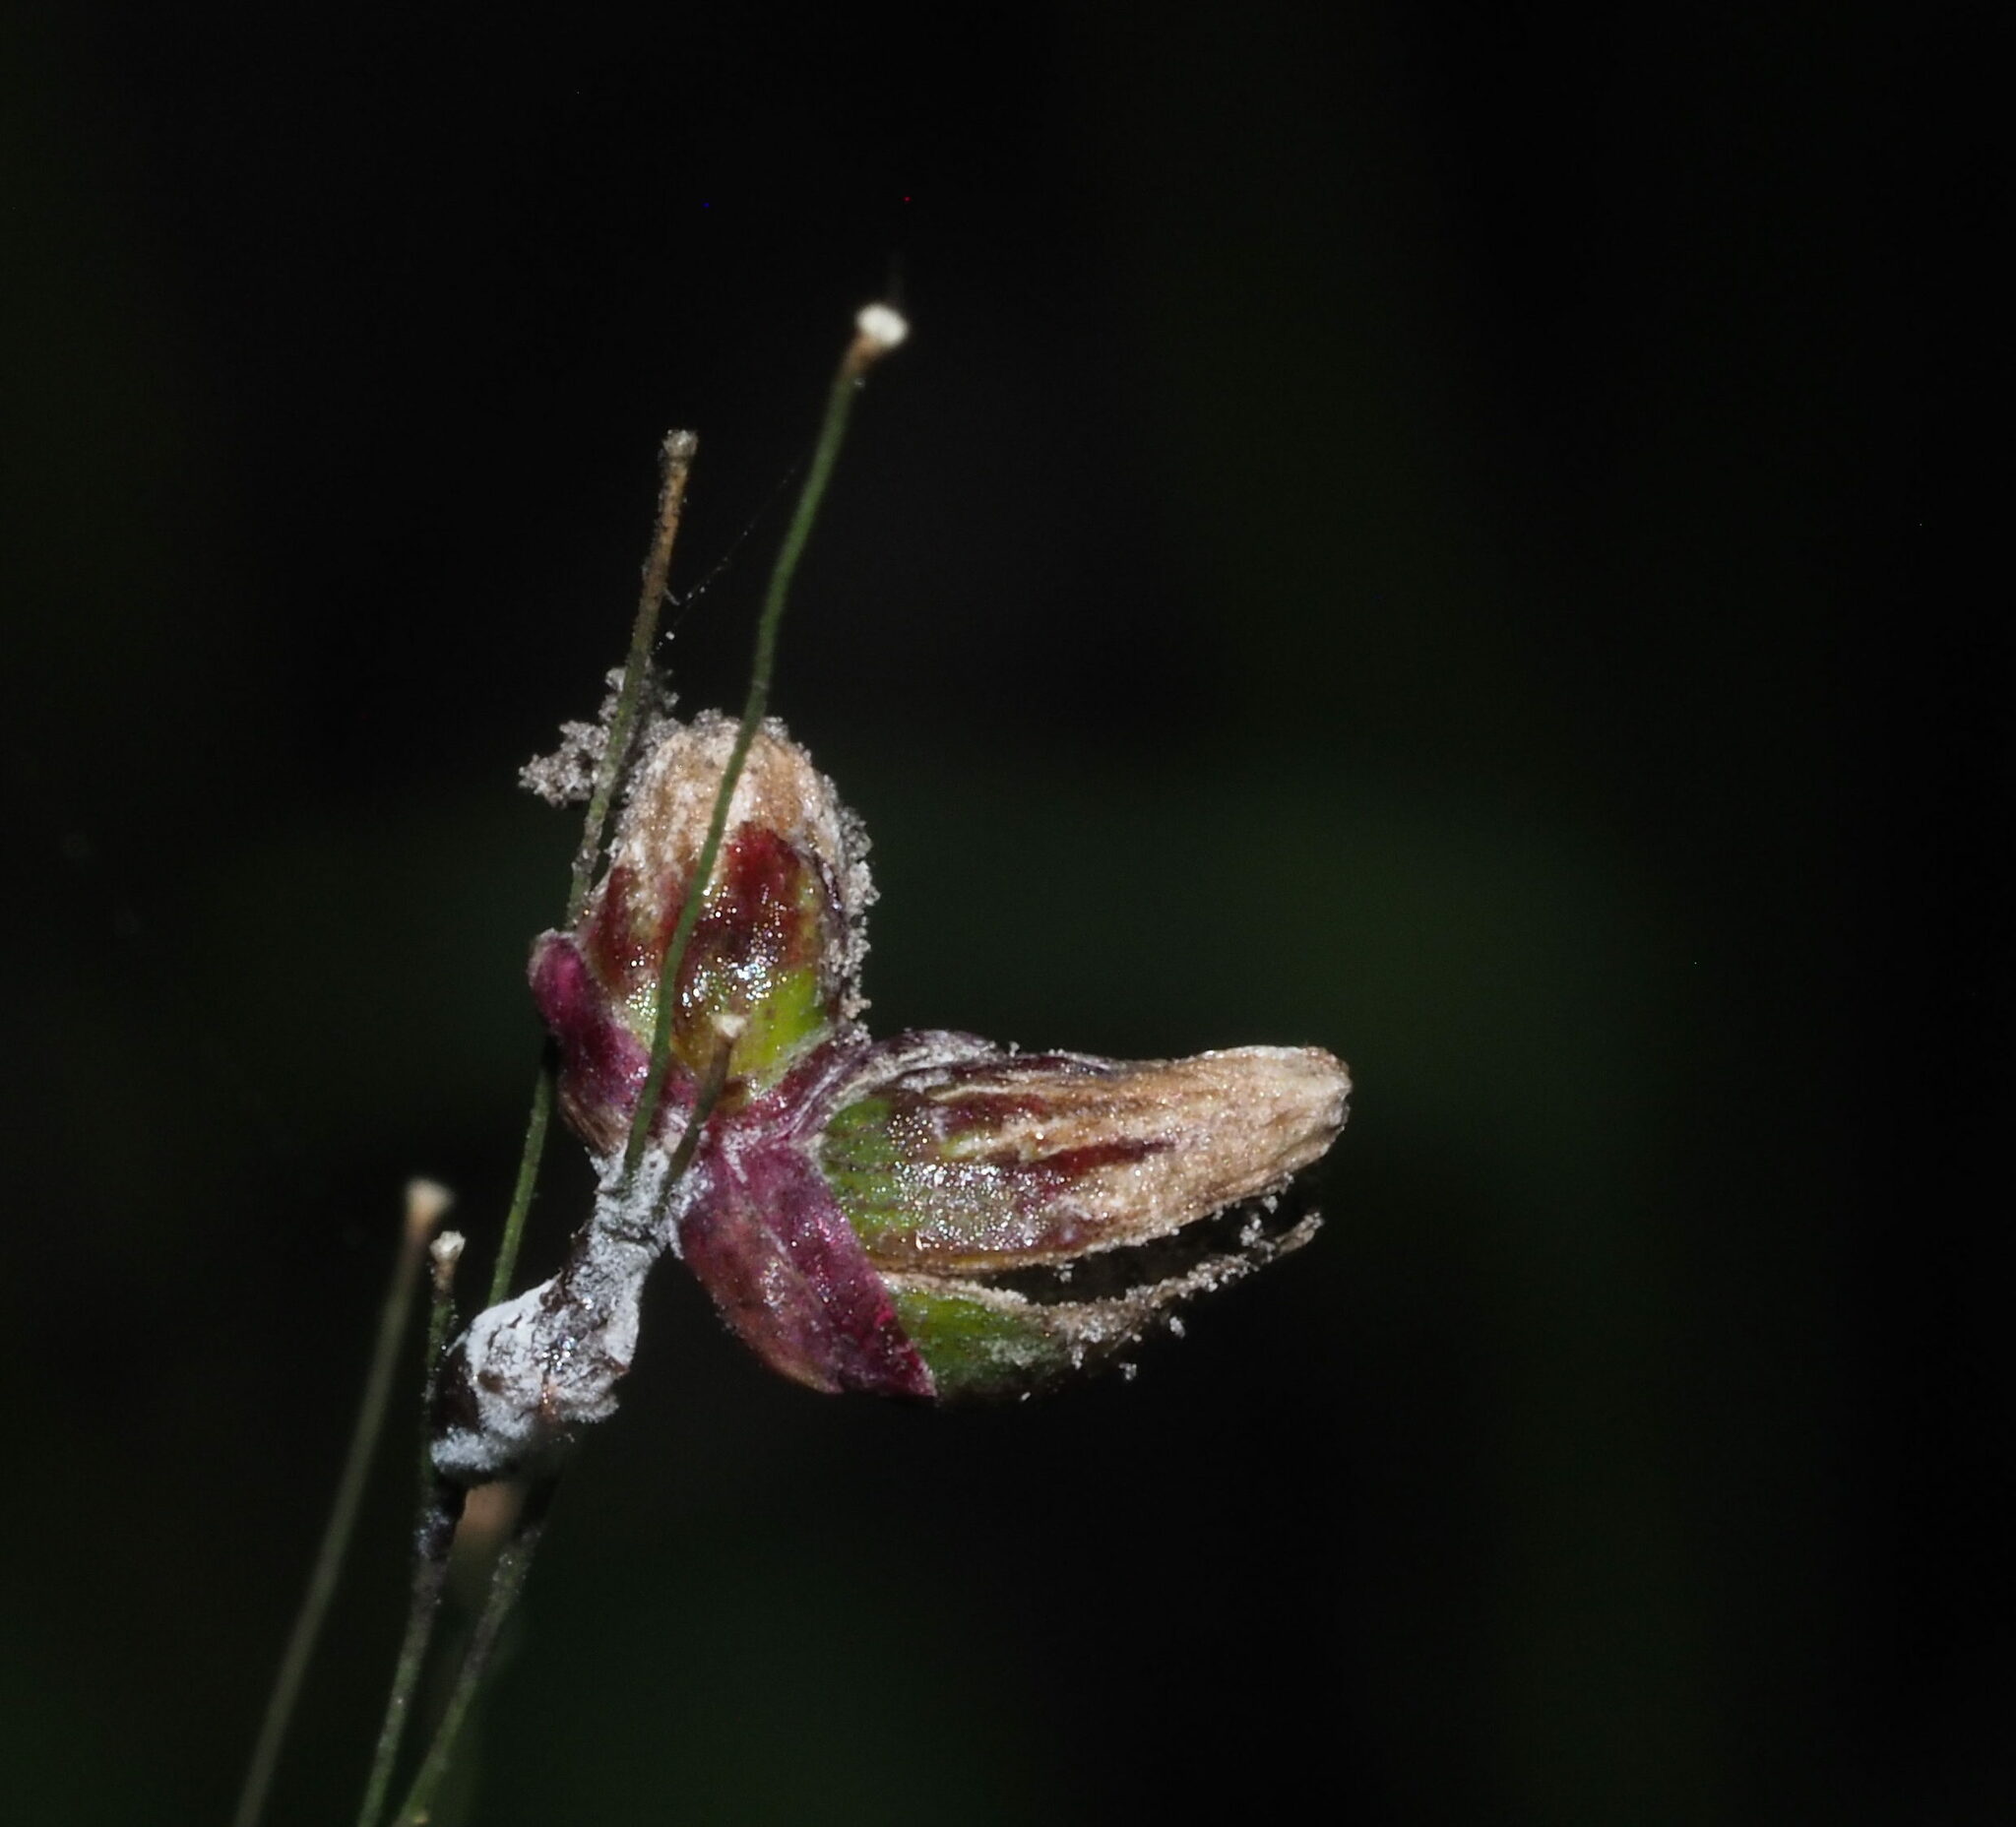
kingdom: Fungi
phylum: Basidiomycota
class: Exobasidiomycetes
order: Tilletiales
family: Tilletiaceae
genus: Conidiosporomyces
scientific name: Conidiosporomyces ayresii
